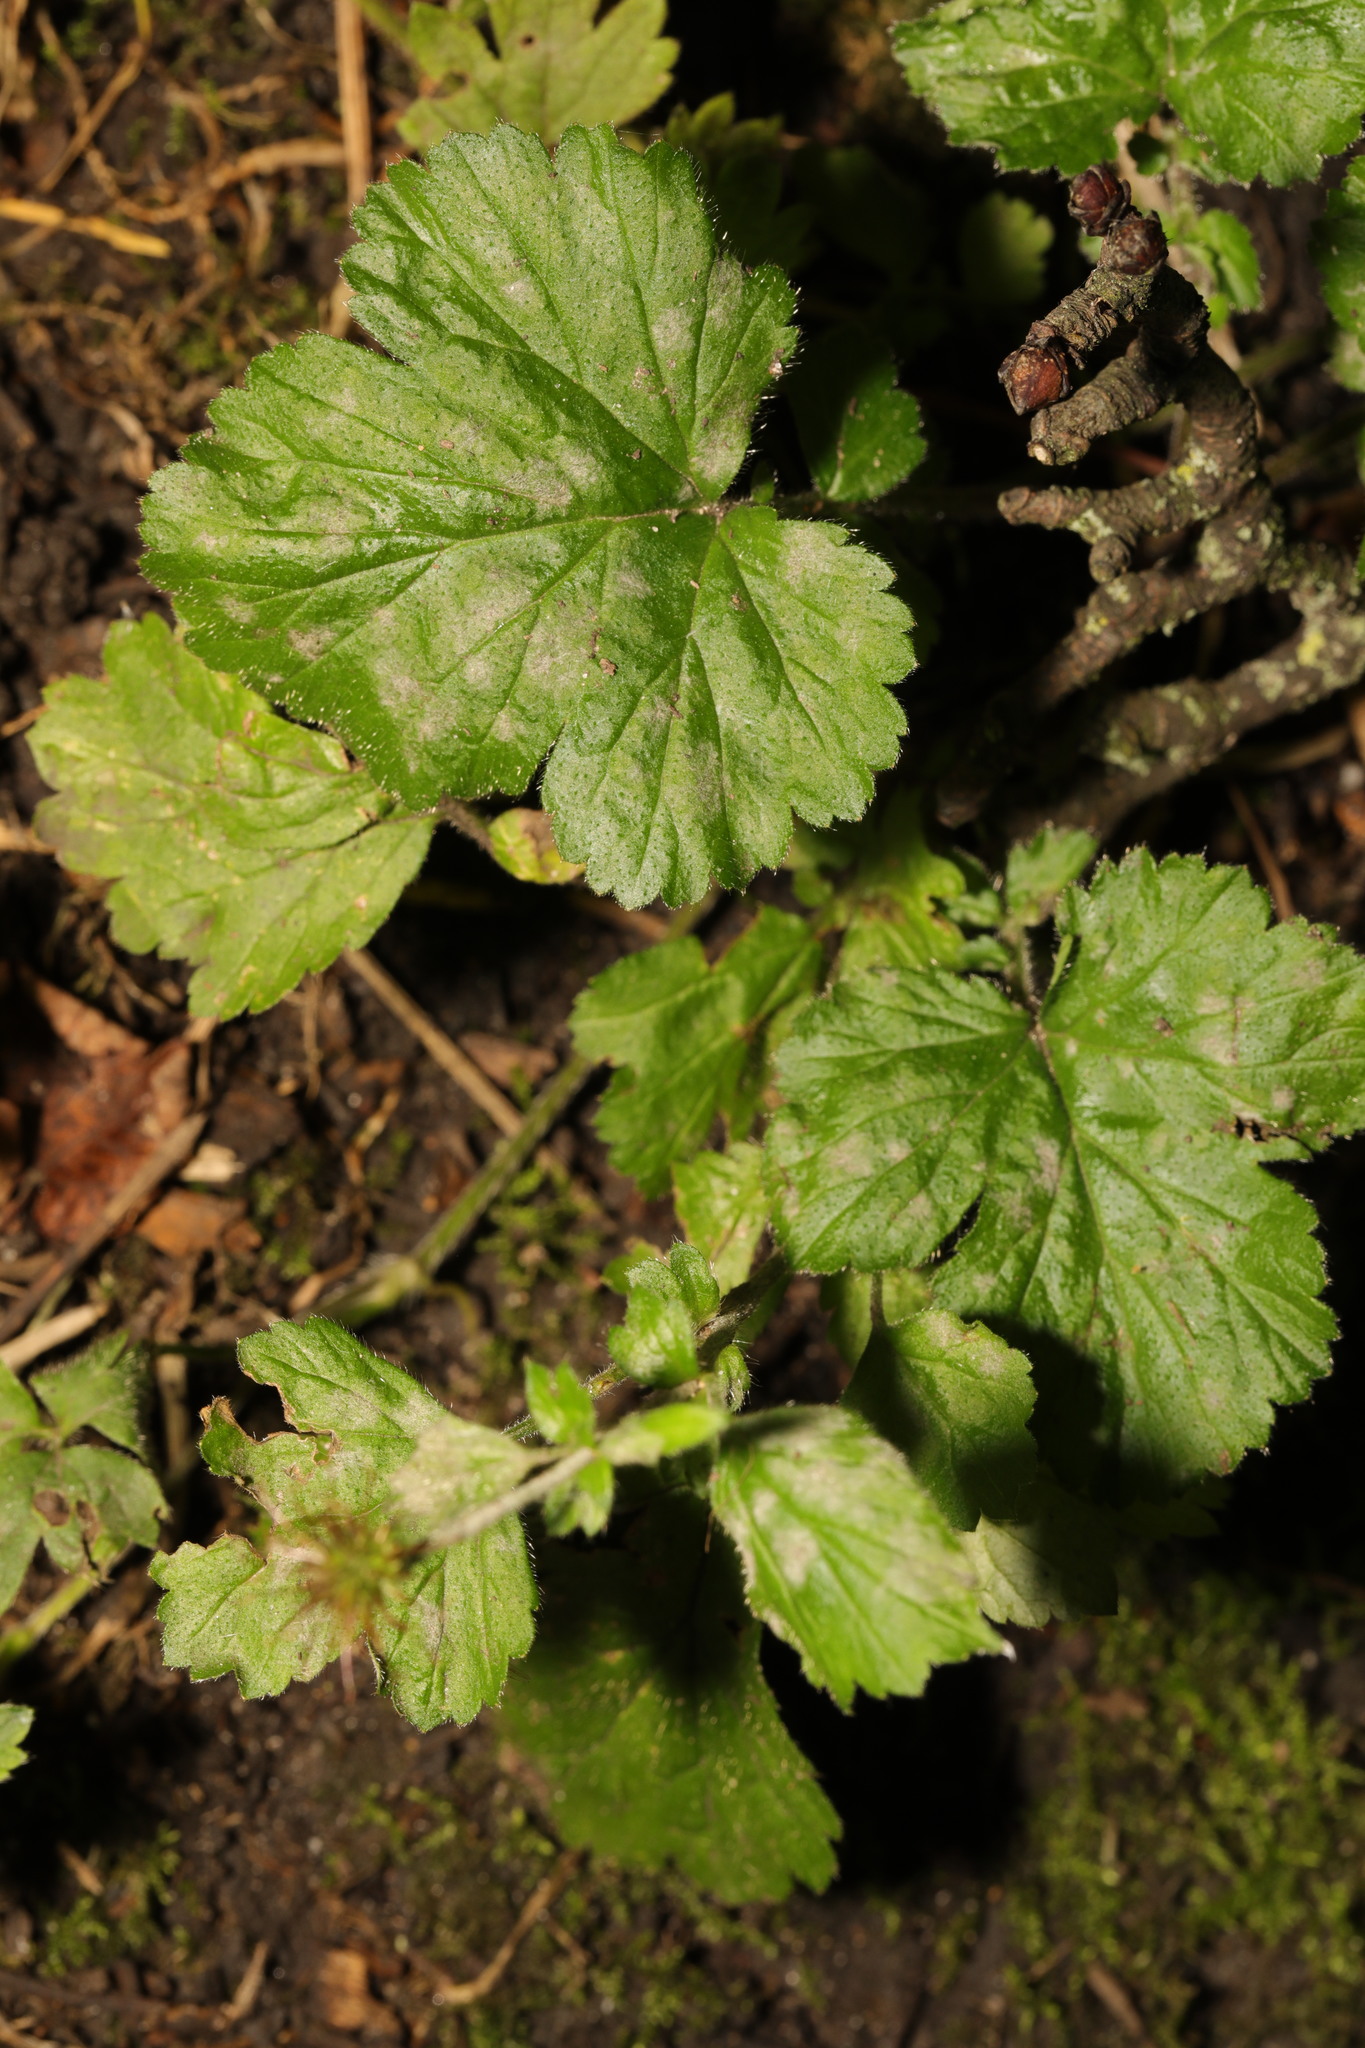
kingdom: Plantae
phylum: Tracheophyta
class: Magnoliopsida
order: Rosales
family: Rosaceae
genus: Geum
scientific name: Geum urbanum
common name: Wood avens
